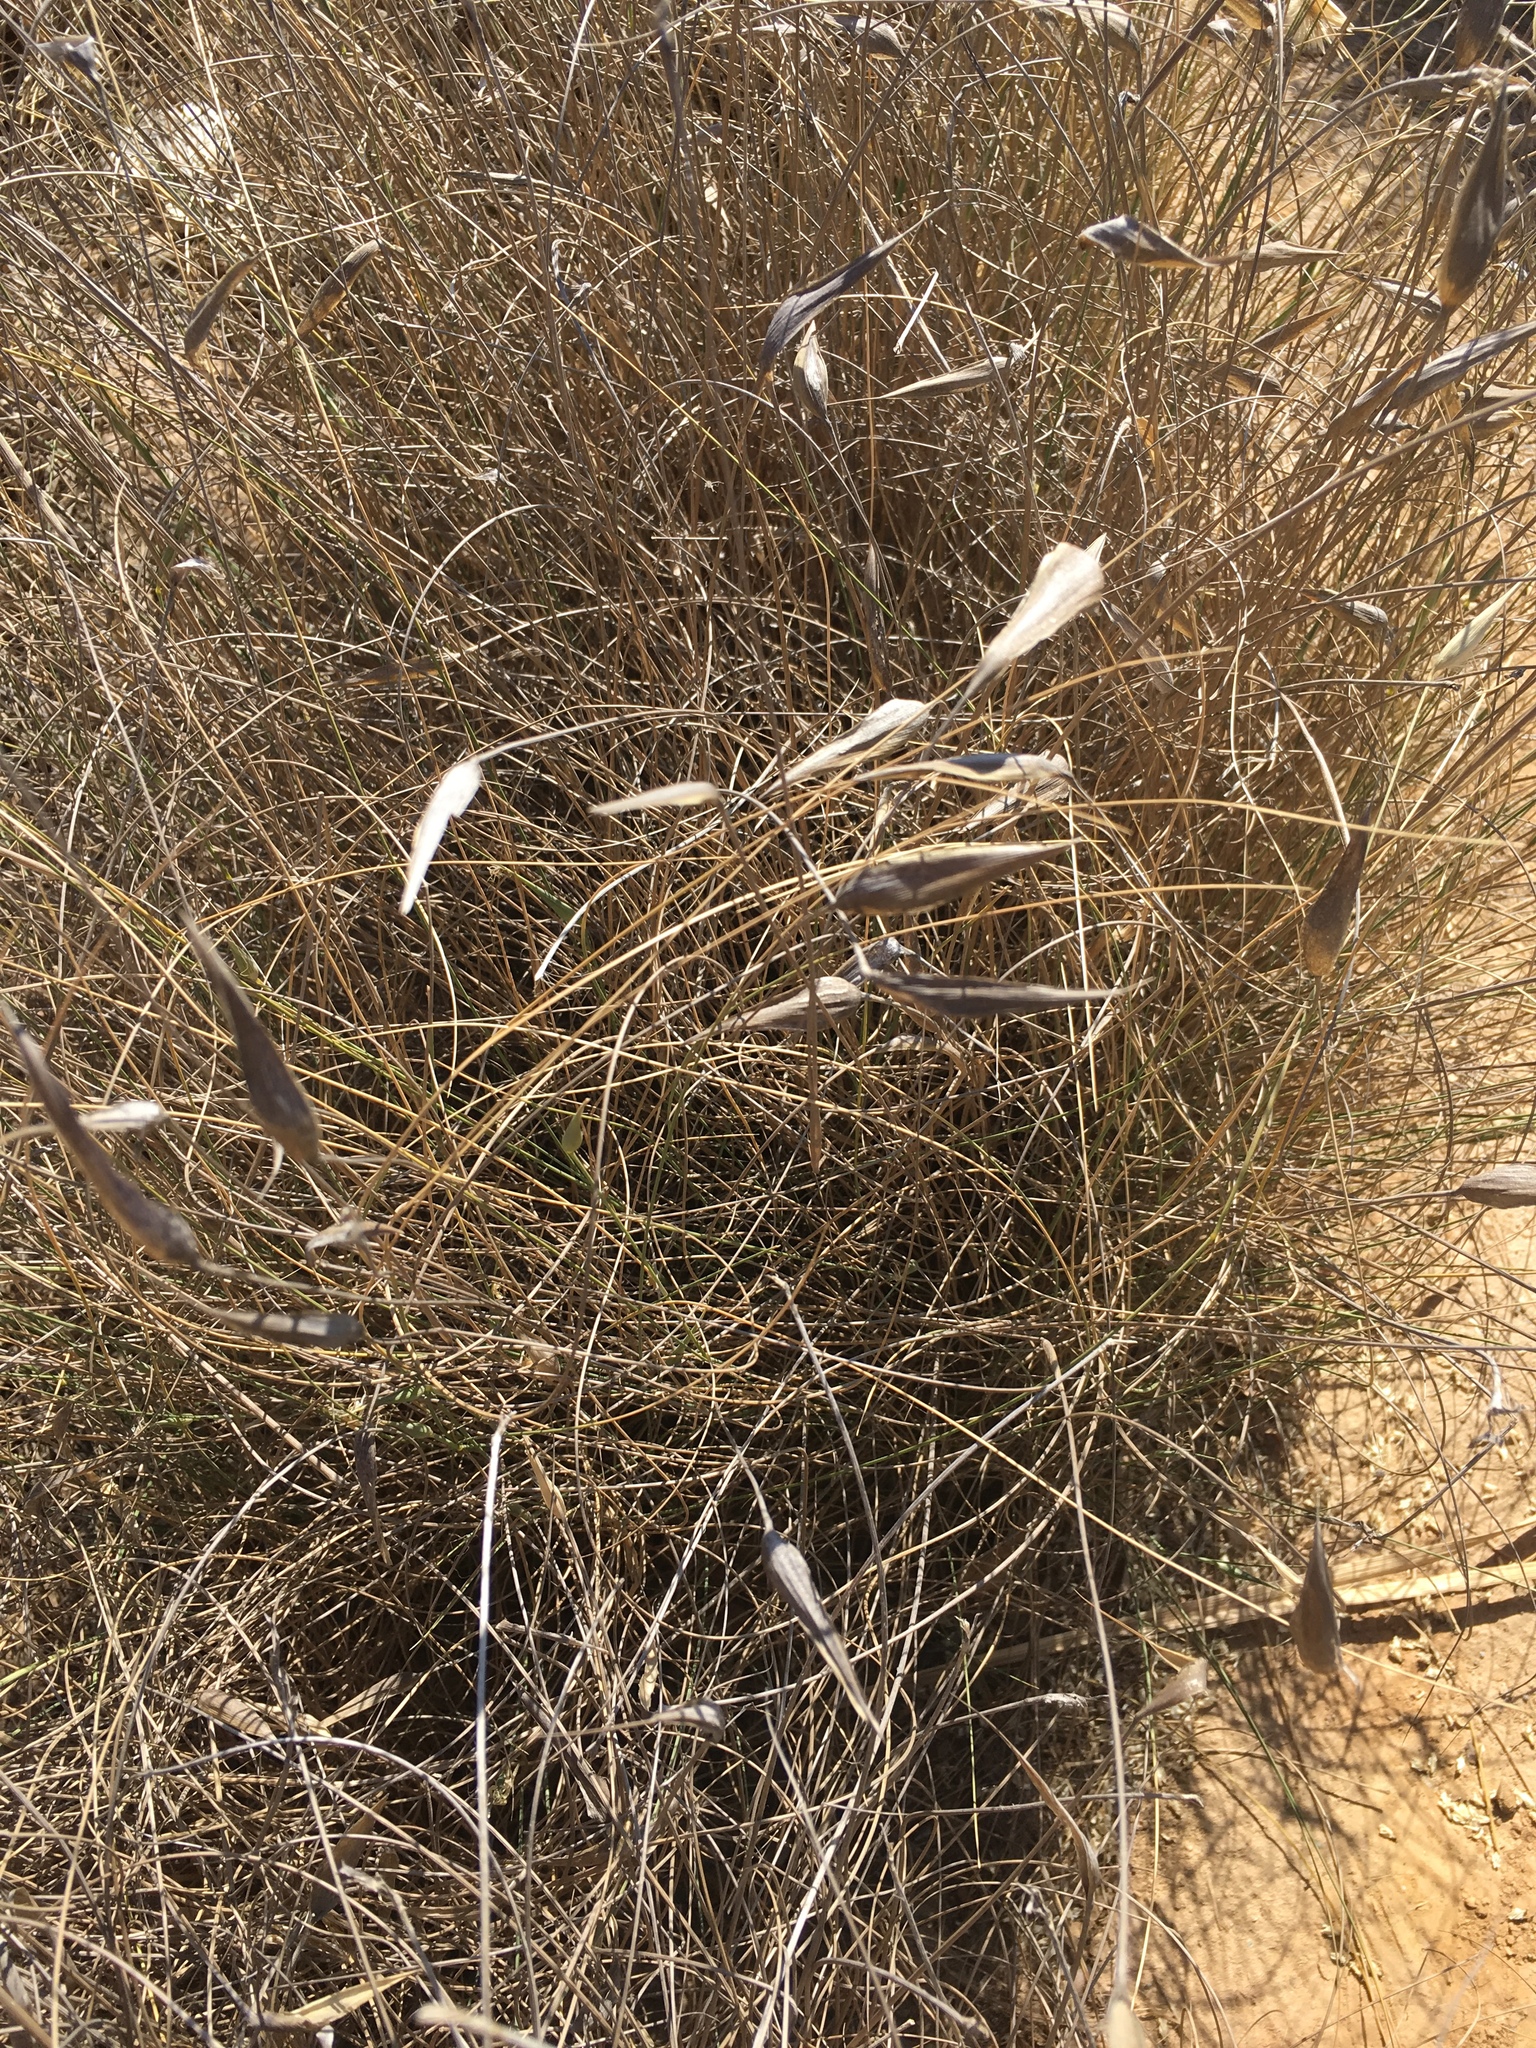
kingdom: Plantae
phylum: Tracheophyta
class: Liliopsida
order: Poales
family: Poaceae
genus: Lygeum
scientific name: Lygeum spartum
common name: Albardine
